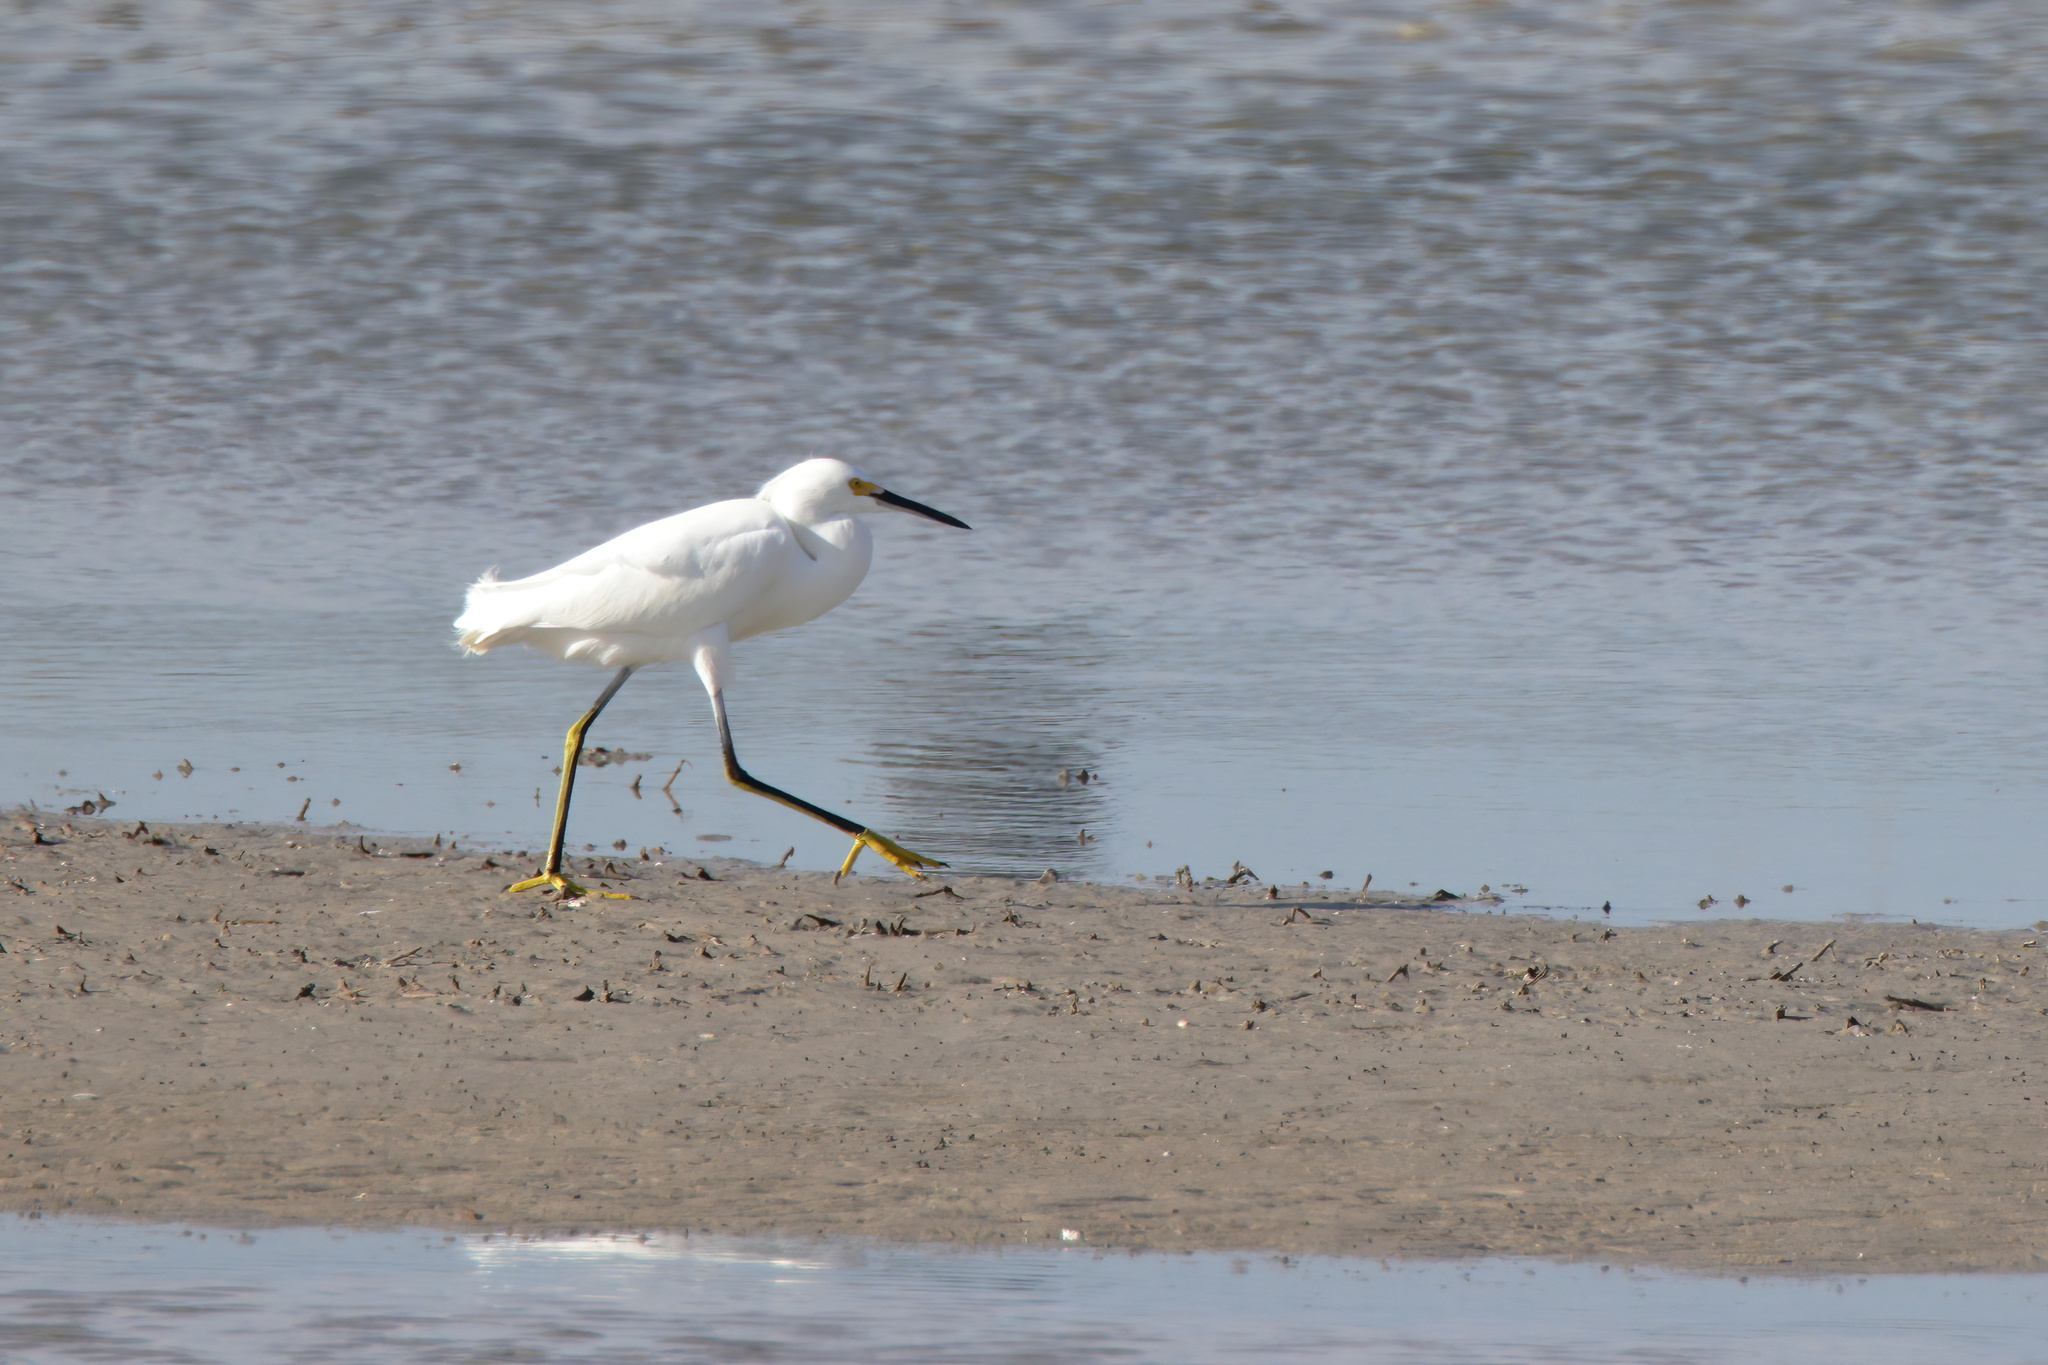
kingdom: Animalia
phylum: Chordata
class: Aves
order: Pelecaniformes
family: Ardeidae
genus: Egretta
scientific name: Egretta thula
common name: Snowy egret
